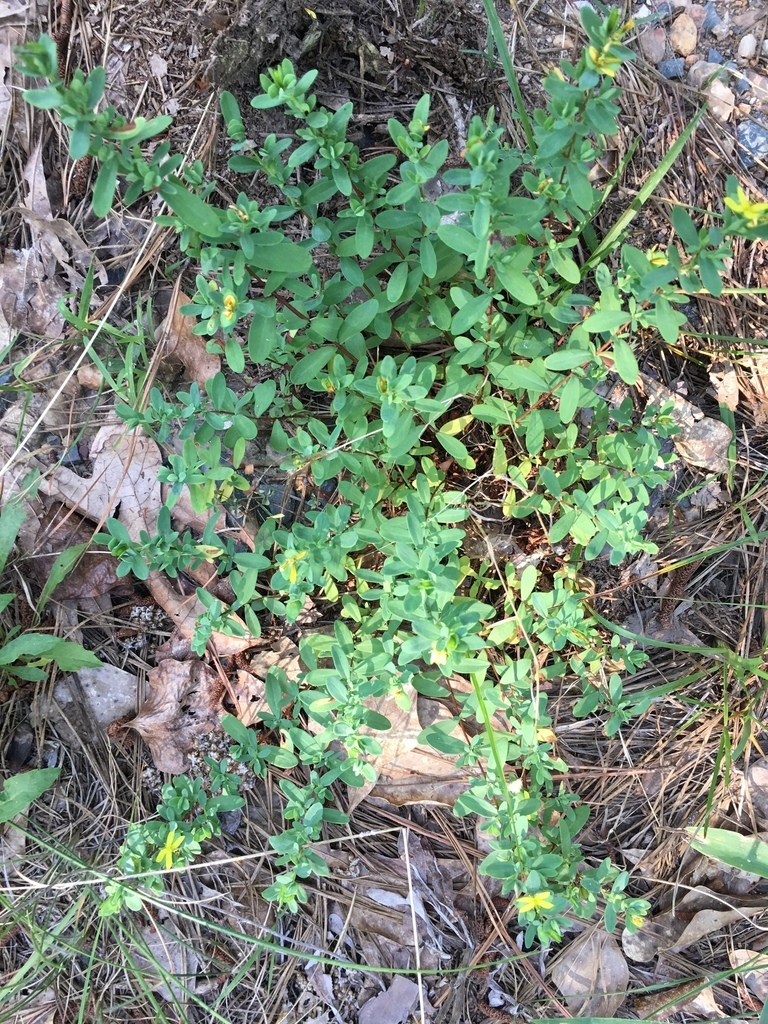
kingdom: Plantae
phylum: Tracheophyta
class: Magnoliopsida
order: Malpighiales
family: Hypericaceae
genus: Hypericum
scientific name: Hypericum hypericoides
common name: St. andrew's cross
